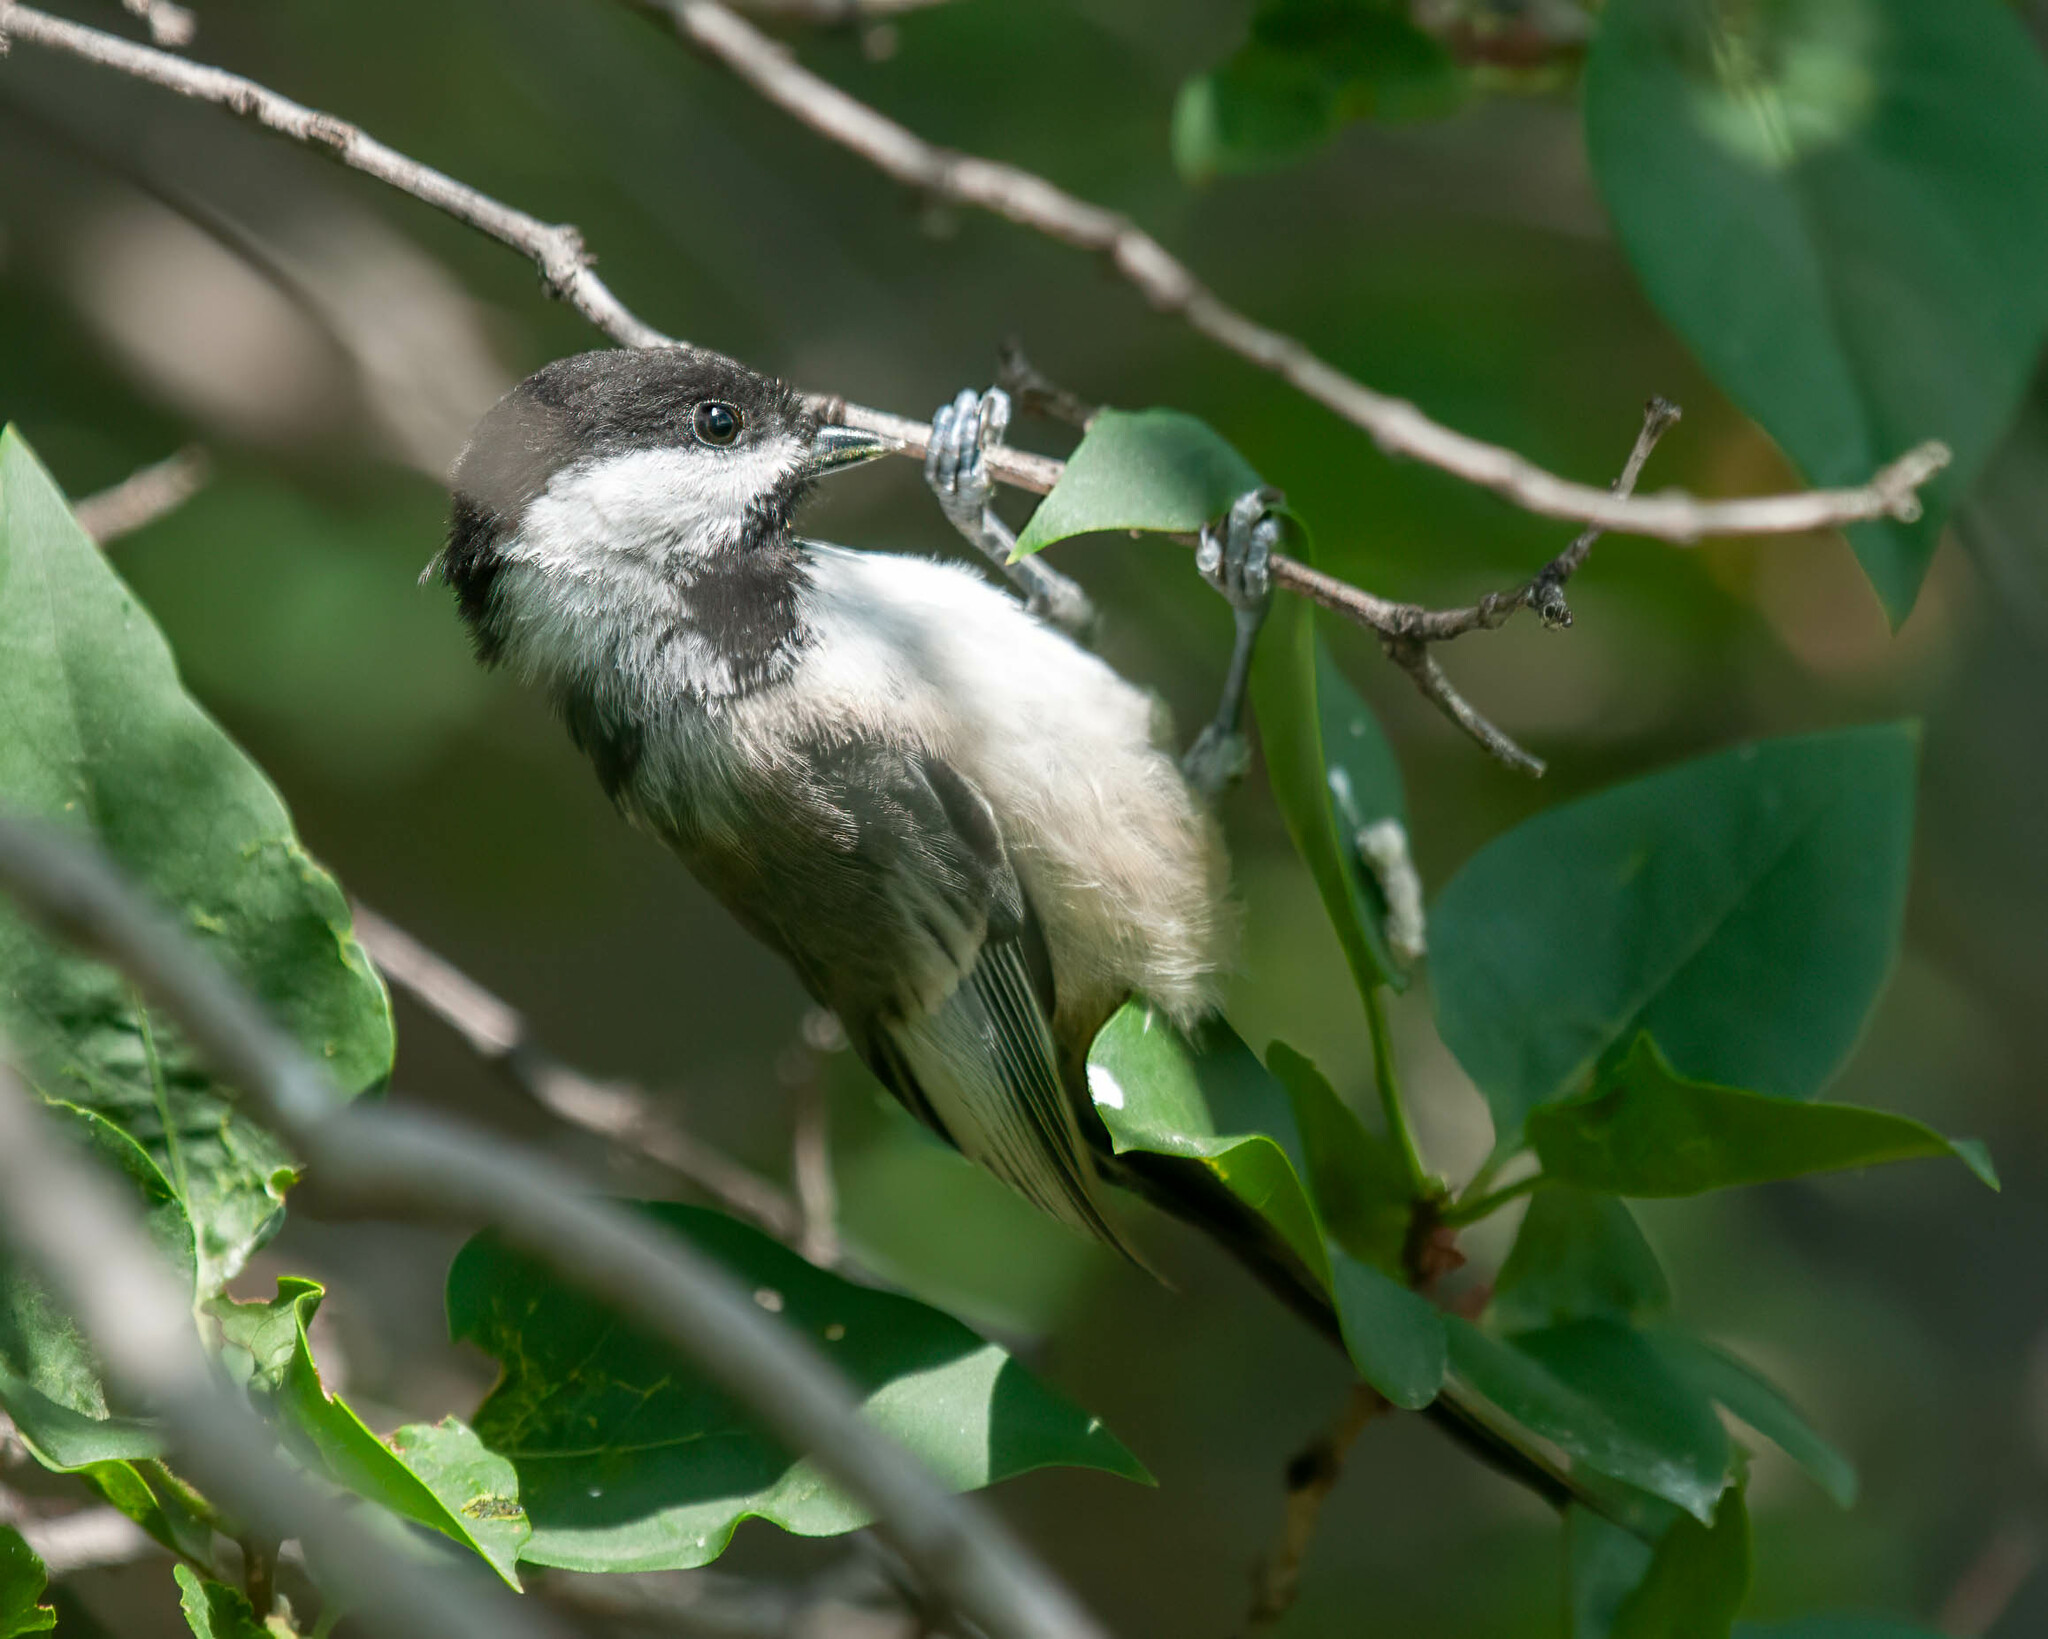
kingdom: Animalia
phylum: Chordata
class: Aves
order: Passeriformes
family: Paridae
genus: Poecile
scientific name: Poecile atricapillus
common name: Black-capped chickadee
